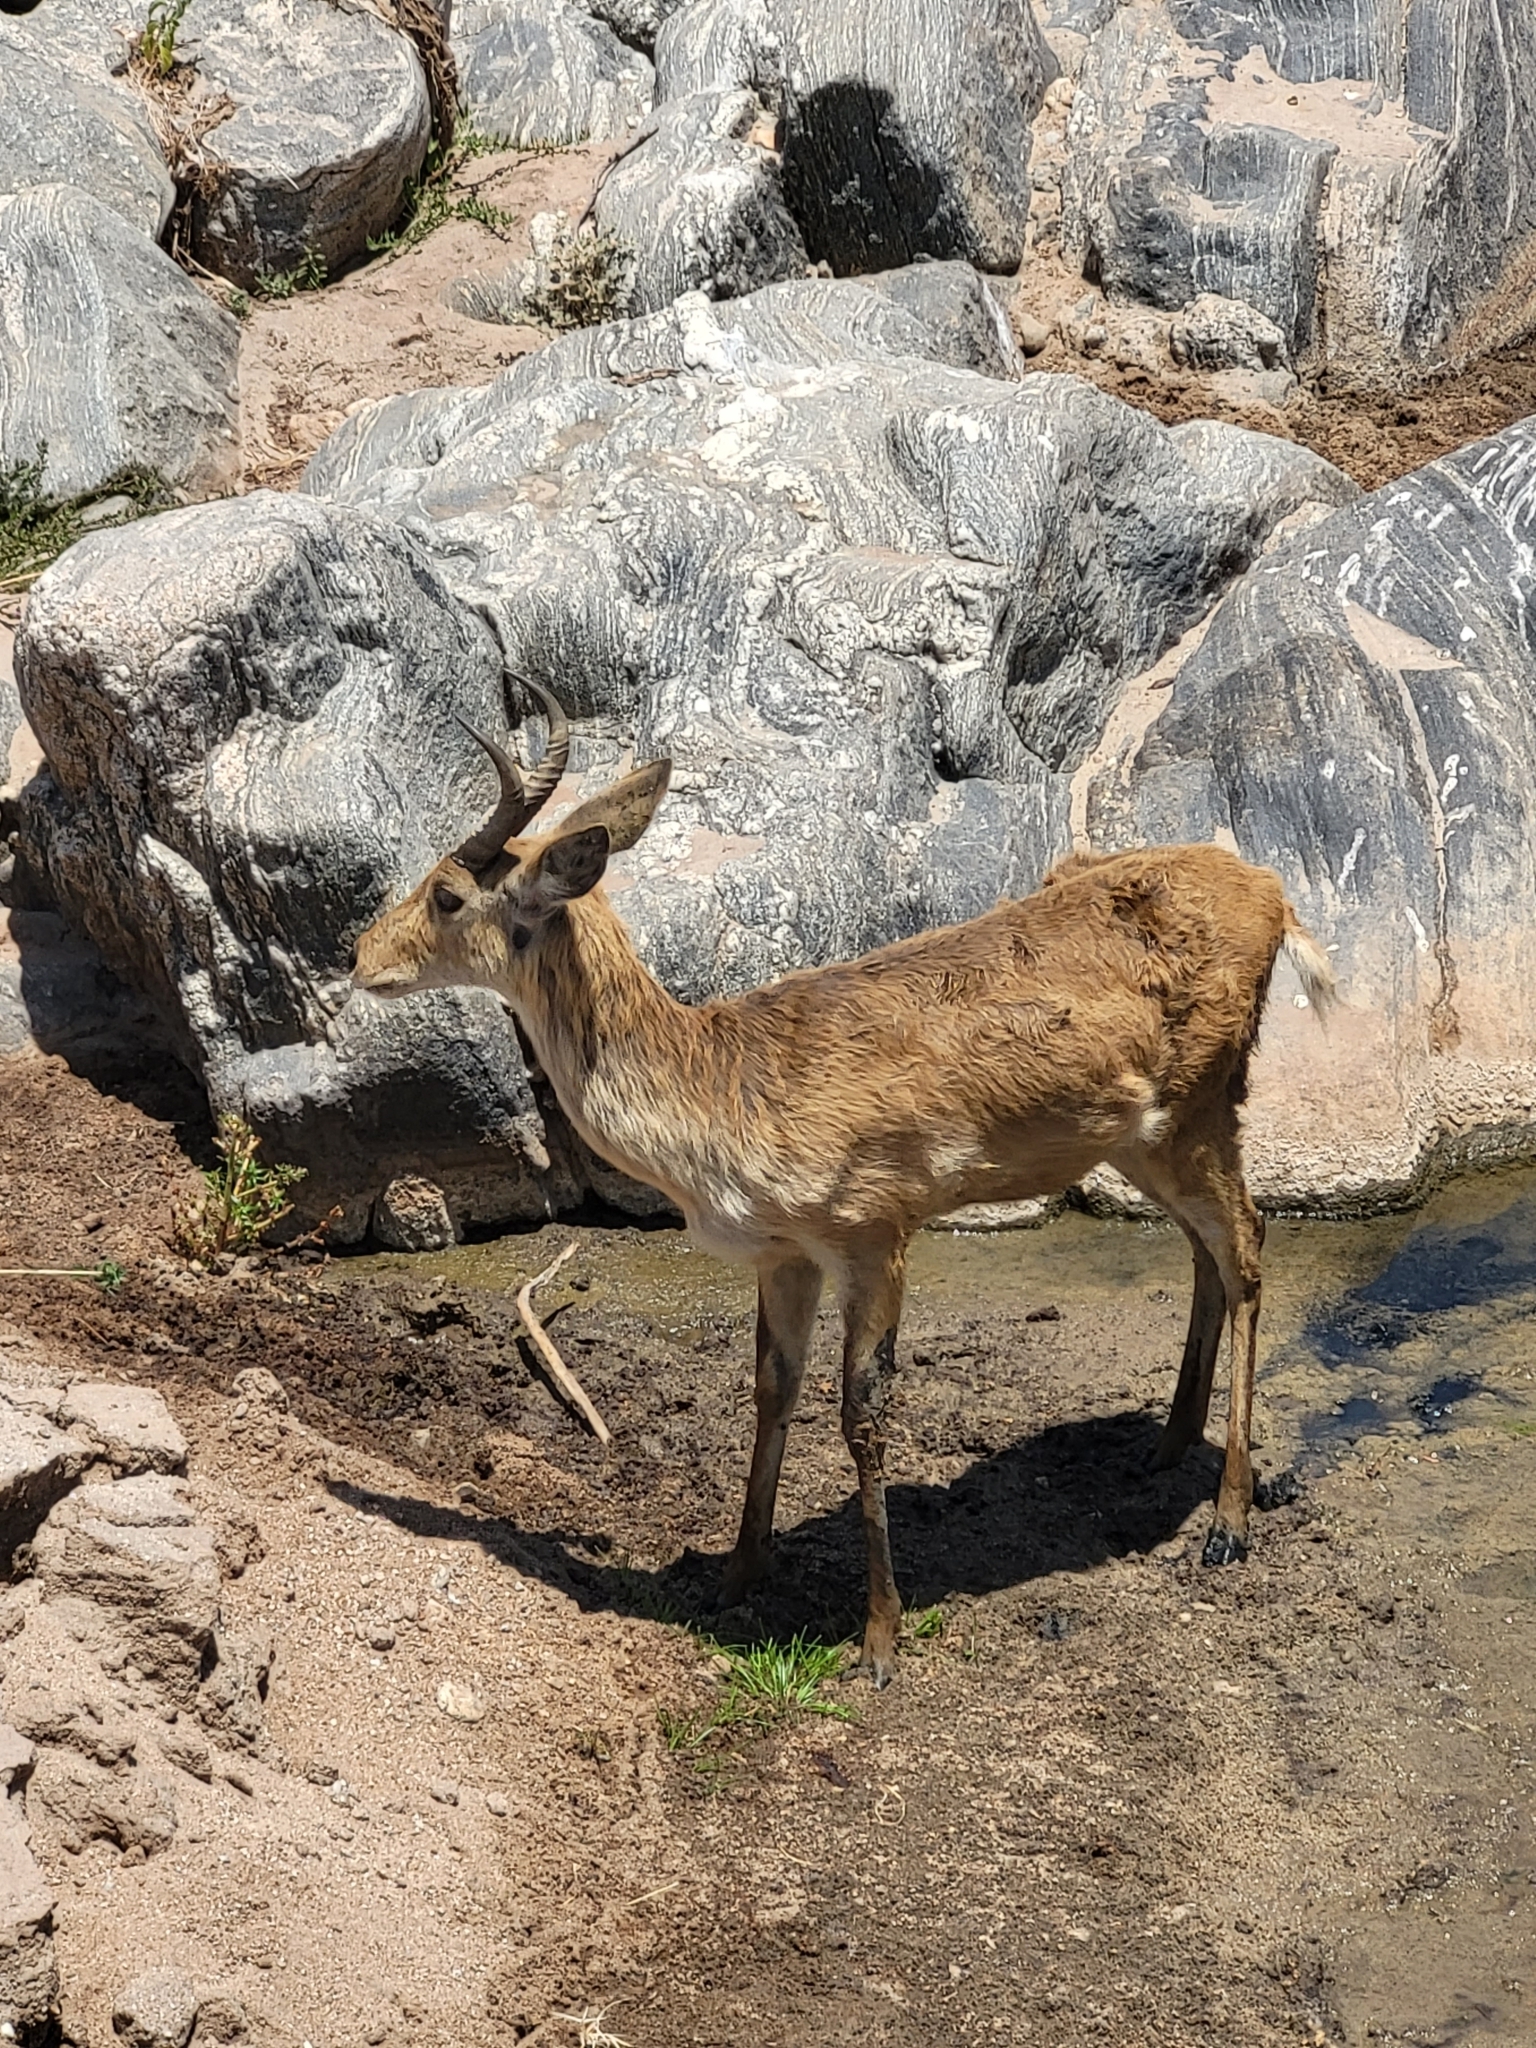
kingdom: Animalia
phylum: Chordata
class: Mammalia
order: Artiodactyla
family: Bovidae
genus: Redunca
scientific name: Redunca redunca
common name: Common reedbuck
